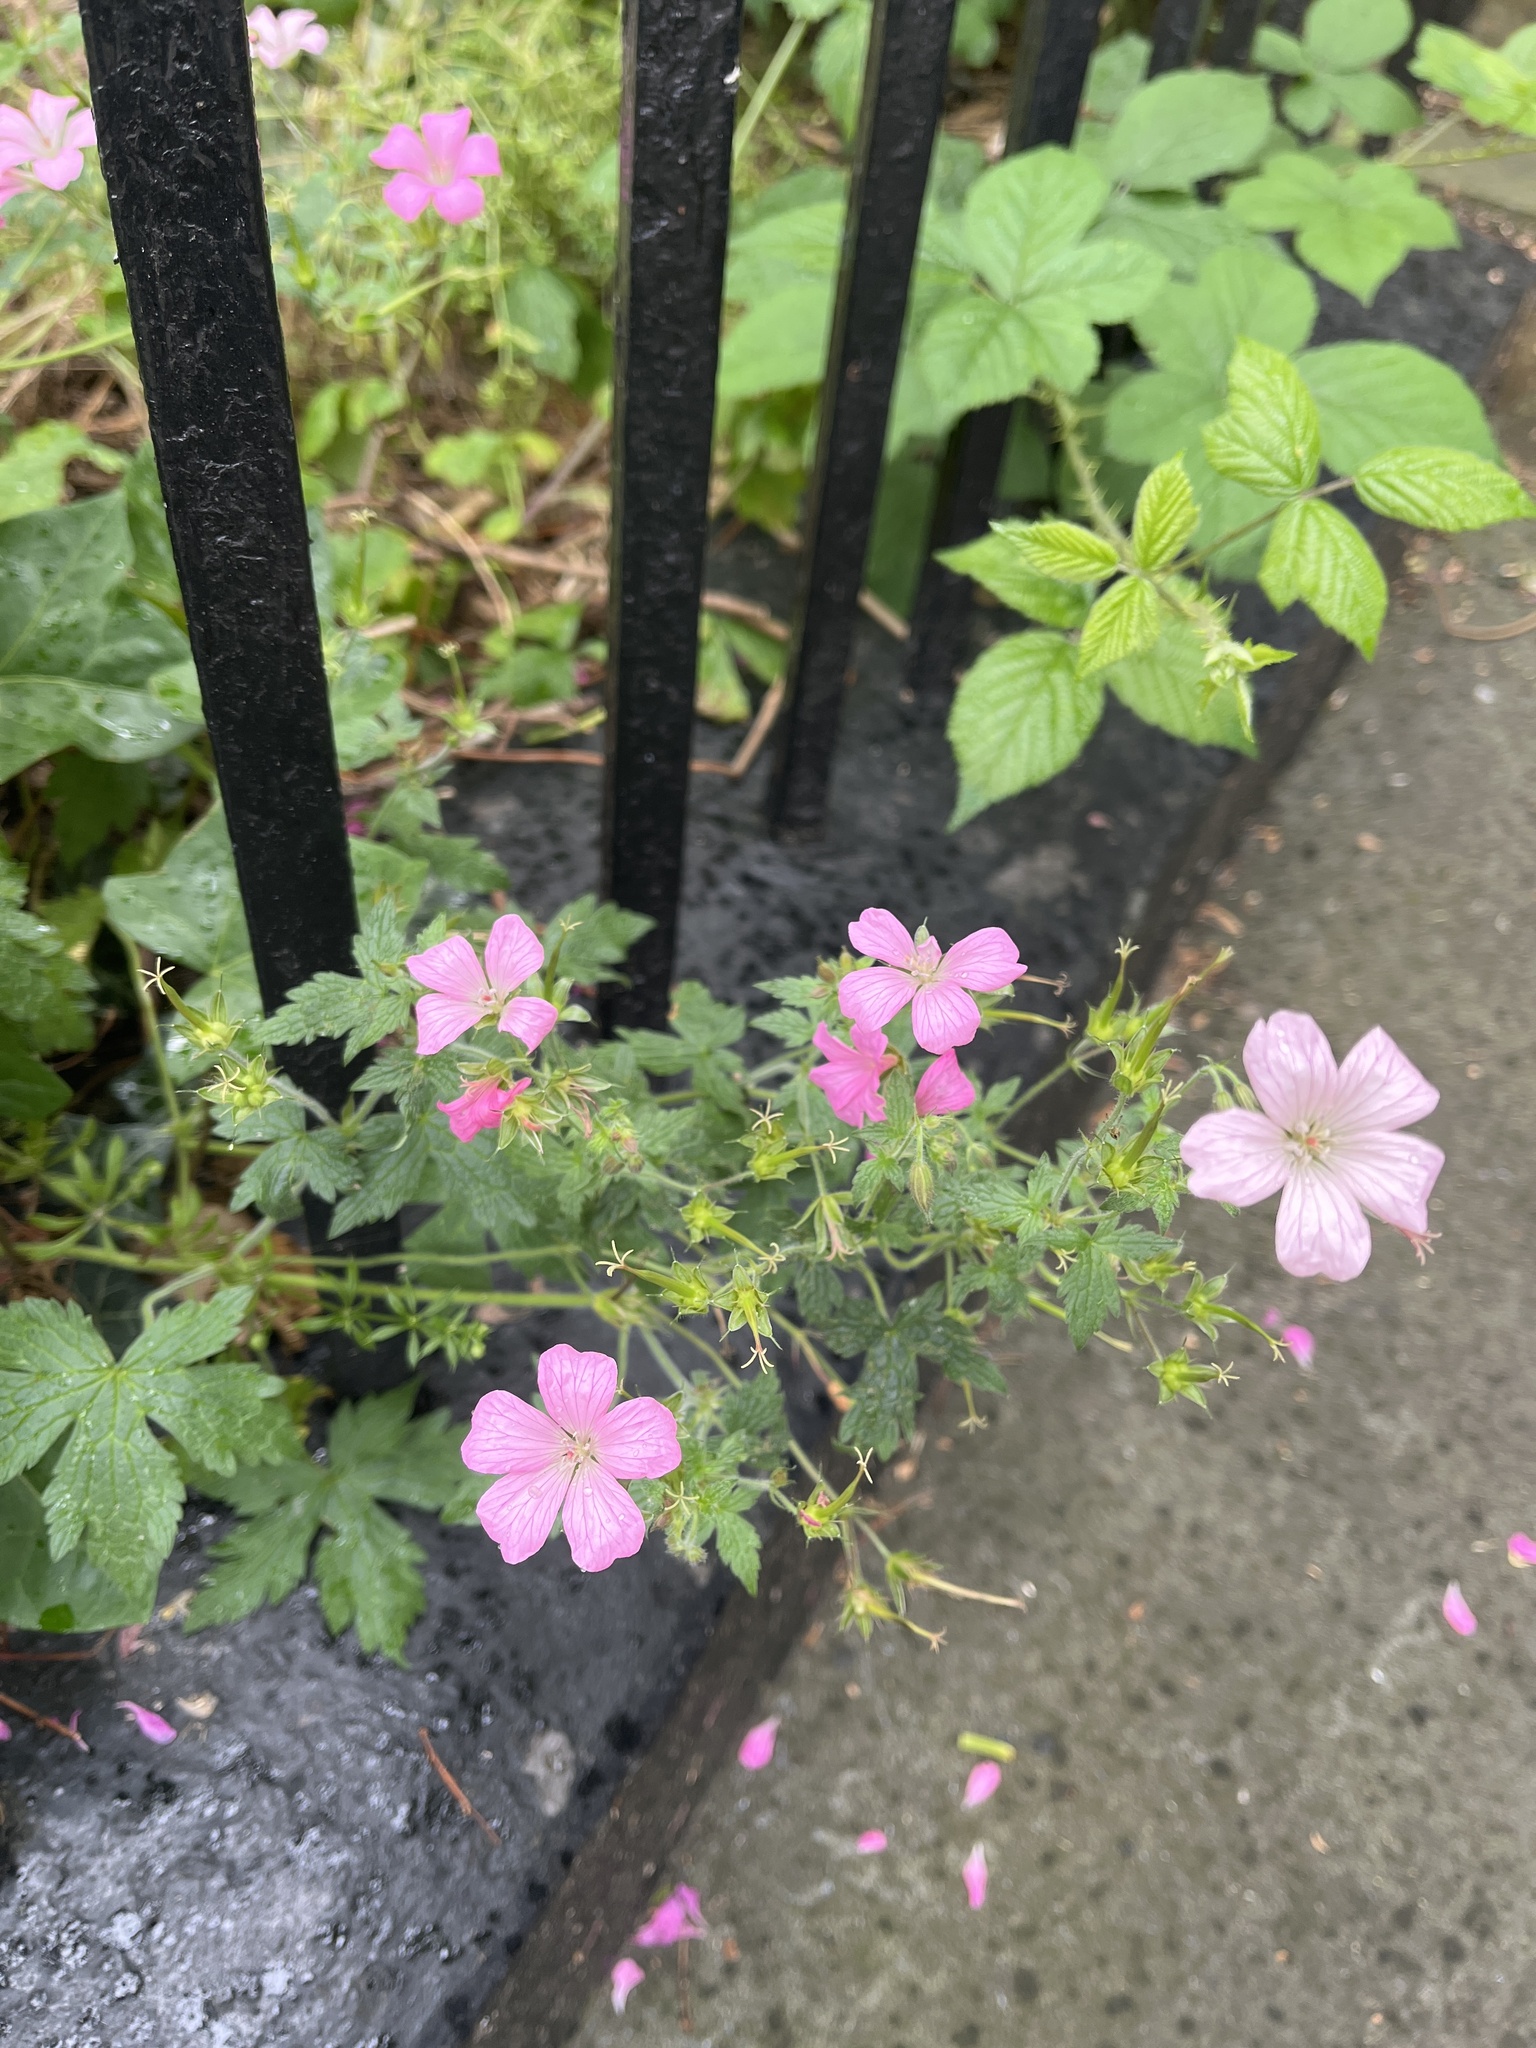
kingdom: Plantae
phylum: Tracheophyta
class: Magnoliopsida
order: Geraniales
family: Geraniaceae
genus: Geranium
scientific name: Geranium oxonianum
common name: Druce's crane's-bill
